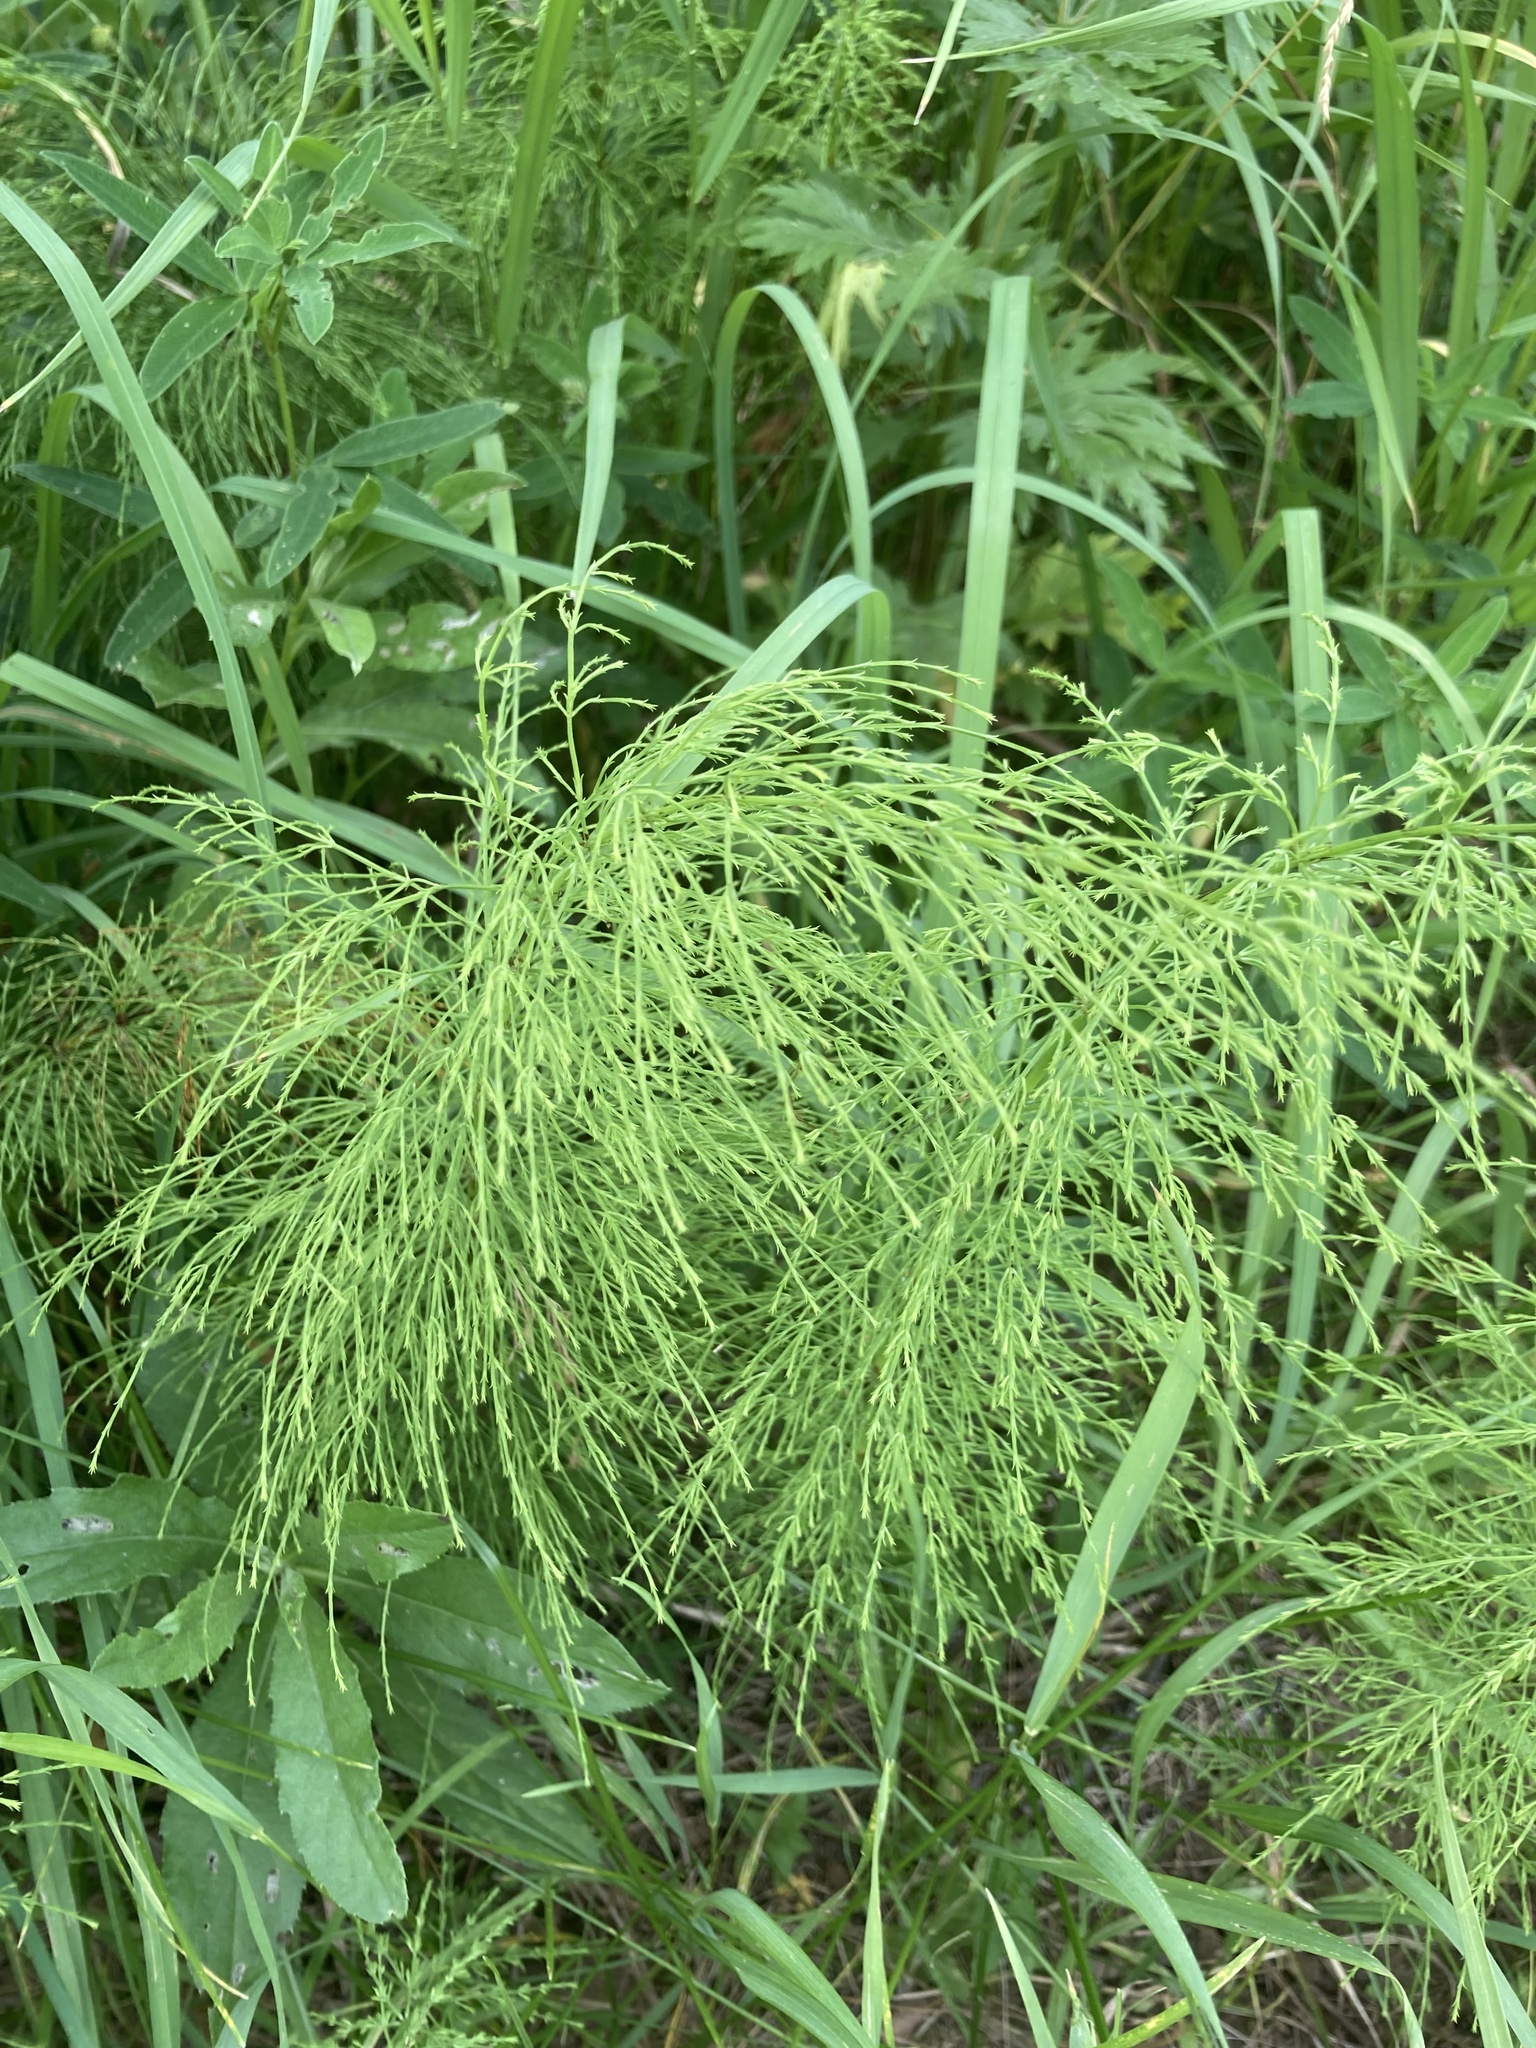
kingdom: Plantae
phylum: Tracheophyta
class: Polypodiopsida
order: Equisetales
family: Equisetaceae
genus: Equisetum
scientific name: Equisetum sylvaticum
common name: Wood horsetail
